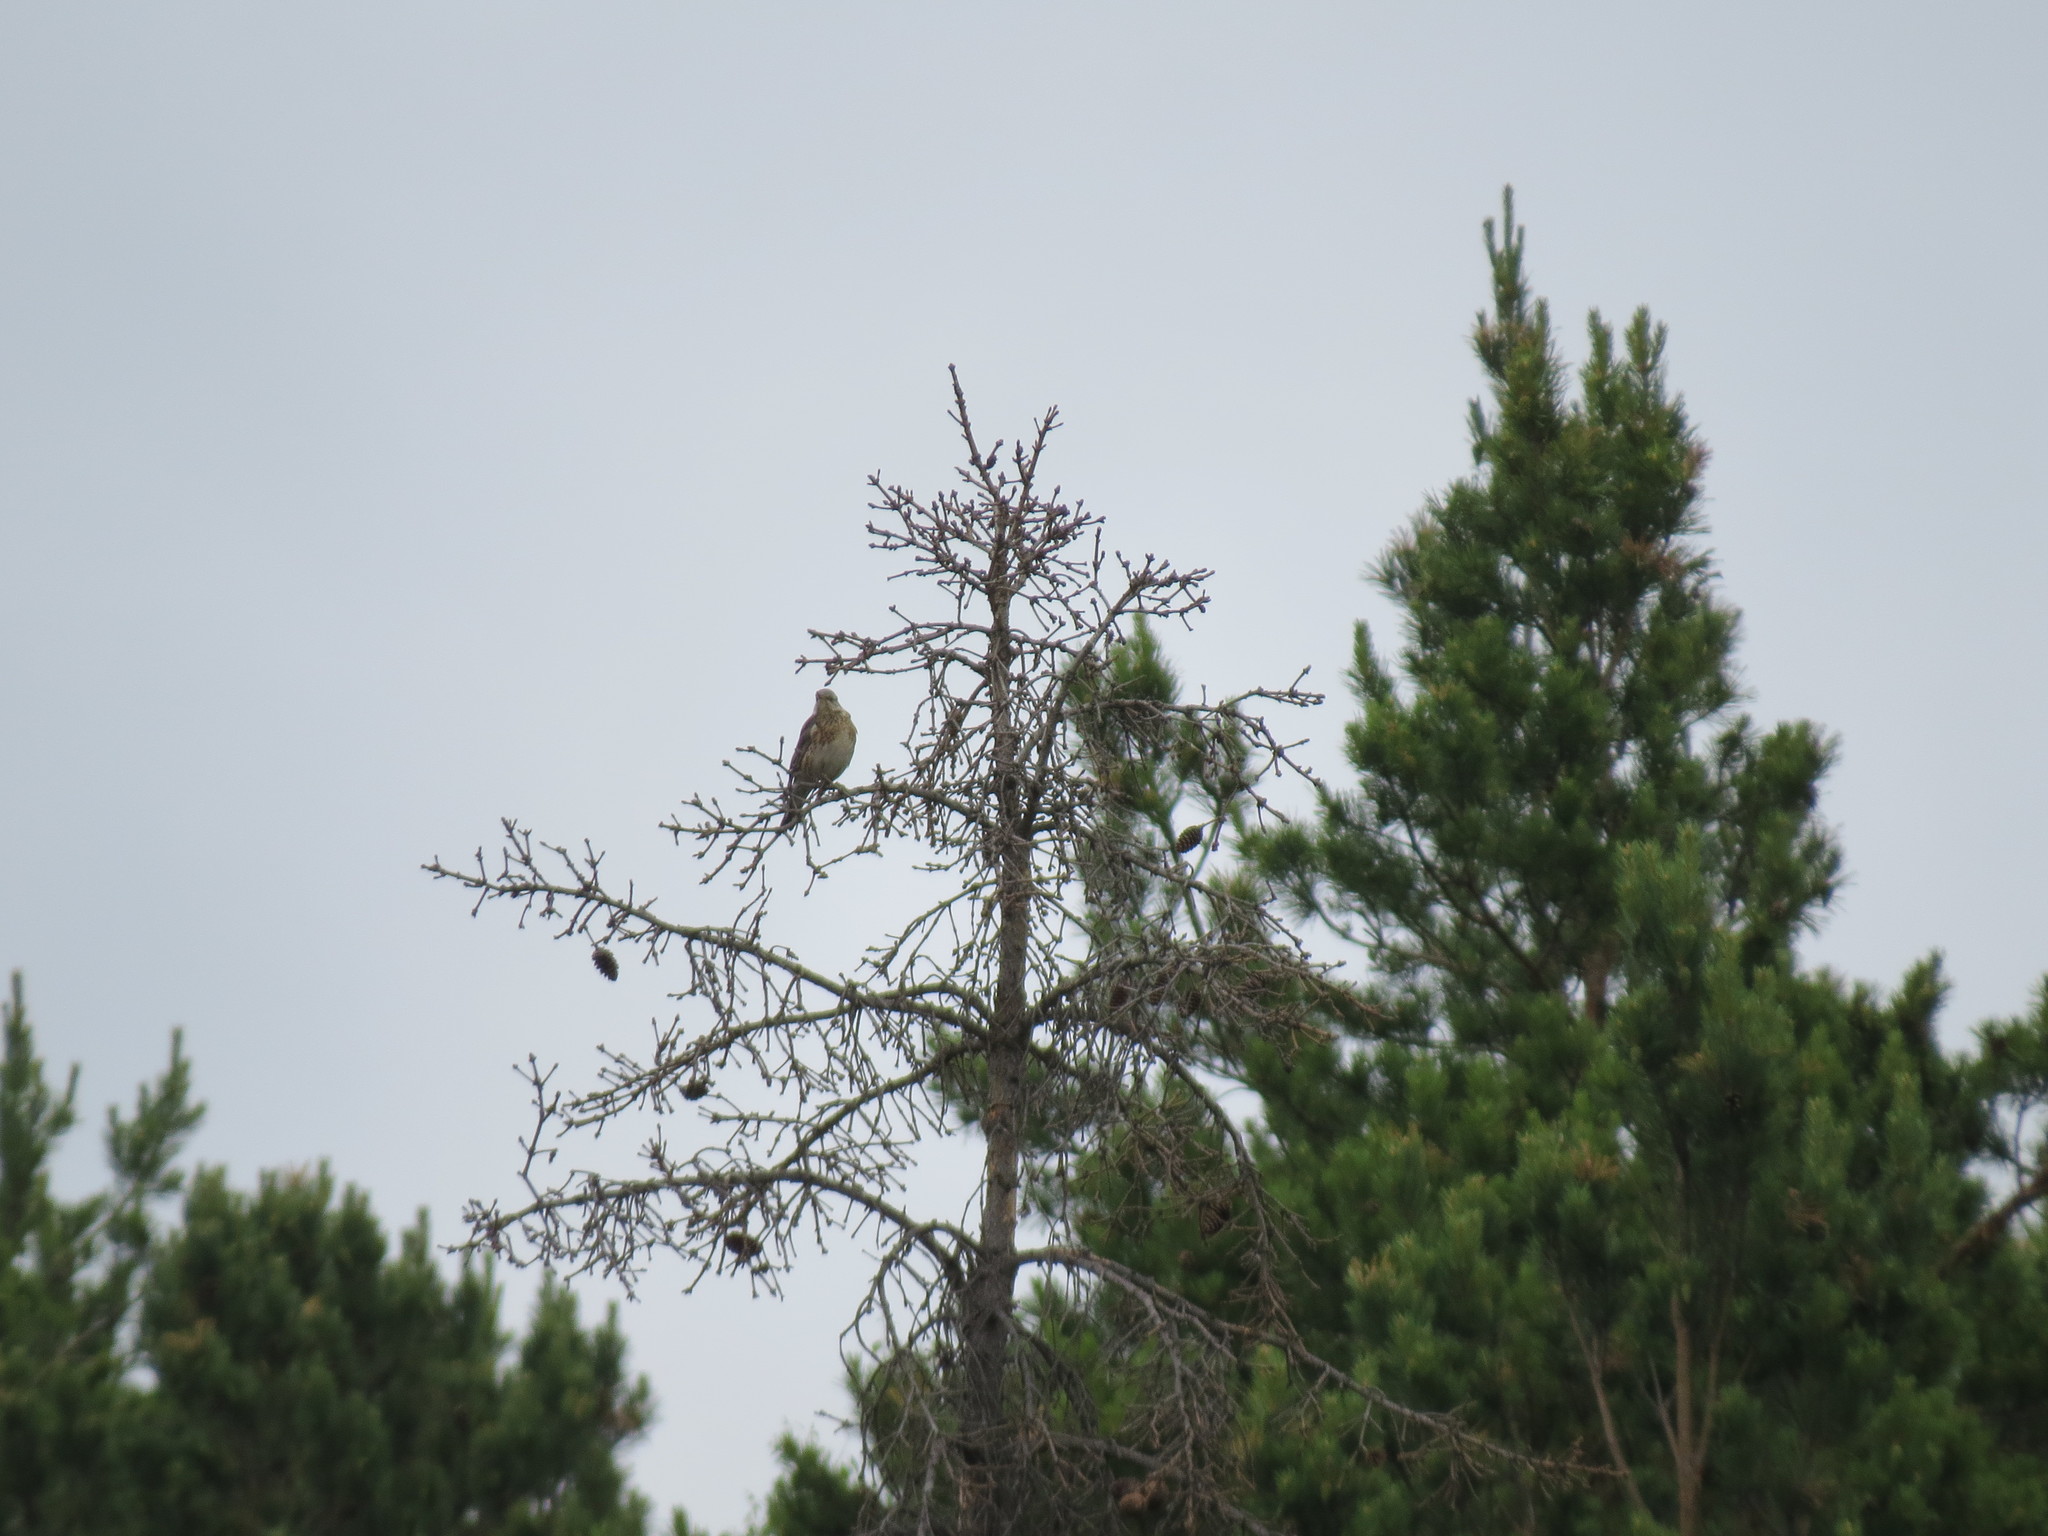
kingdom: Animalia
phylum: Chordata
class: Aves
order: Passeriformes
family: Turdidae
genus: Turdus
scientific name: Turdus pilaris
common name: Fieldfare
